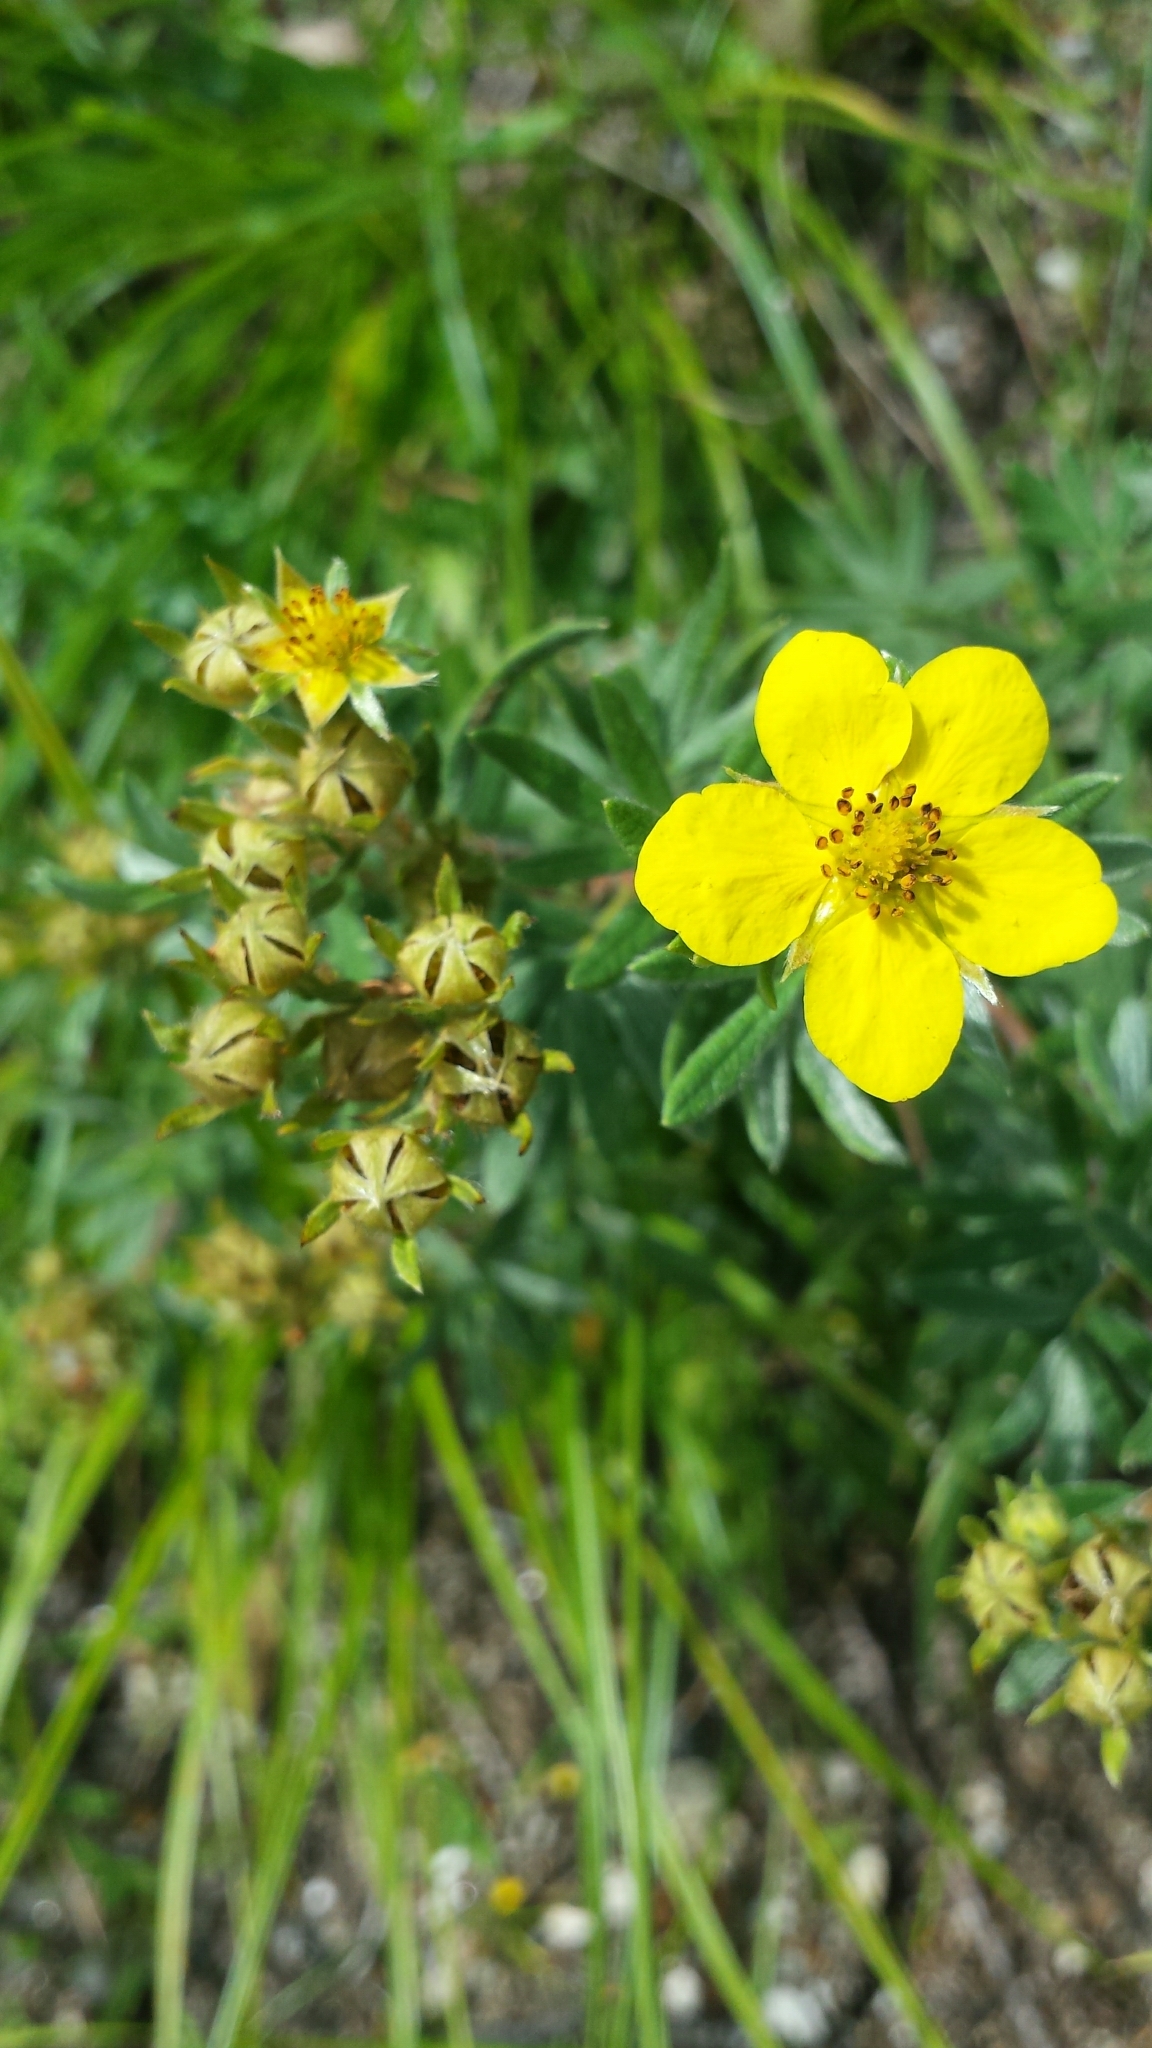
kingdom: Plantae
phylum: Tracheophyta
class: Magnoliopsida
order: Rosales
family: Rosaceae
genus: Dasiphora
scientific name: Dasiphora fruticosa
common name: Shrubby cinquefoil
